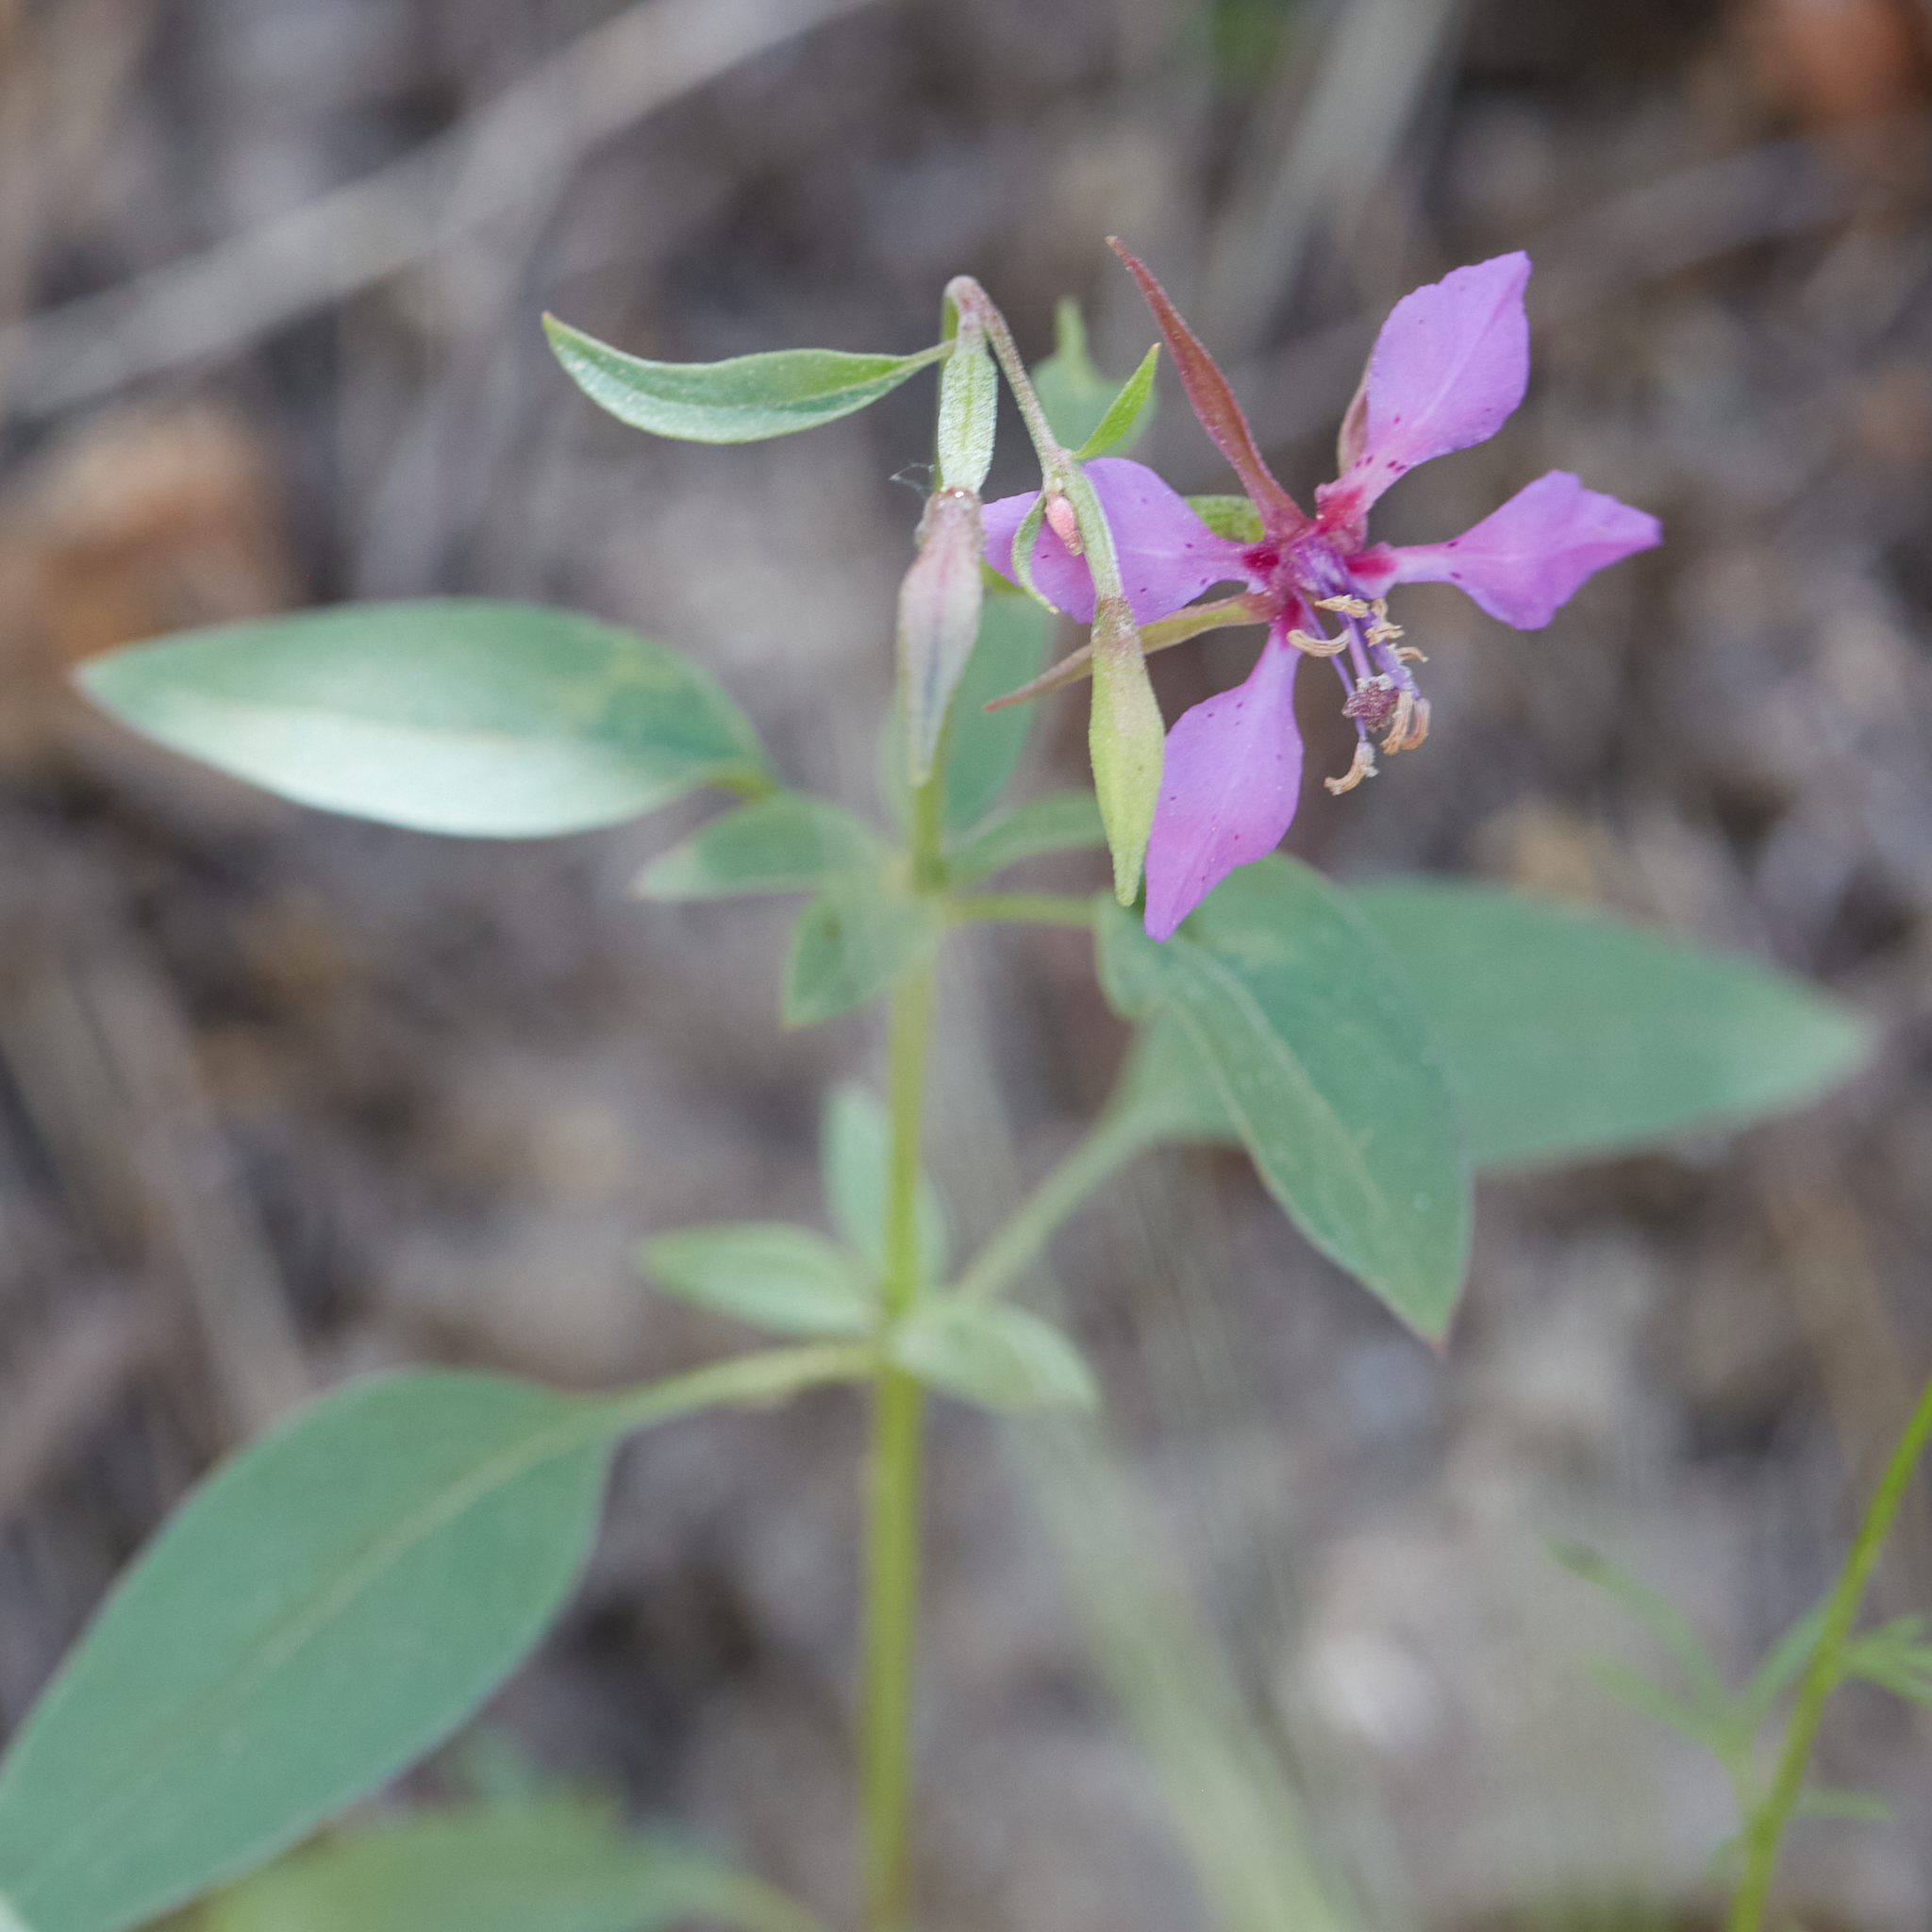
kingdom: Plantae
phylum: Tracheophyta
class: Magnoliopsida
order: Myrtales
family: Onagraceae
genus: Clarkia
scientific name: Clarkia rhomboidea
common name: Broadleaf clarkia
